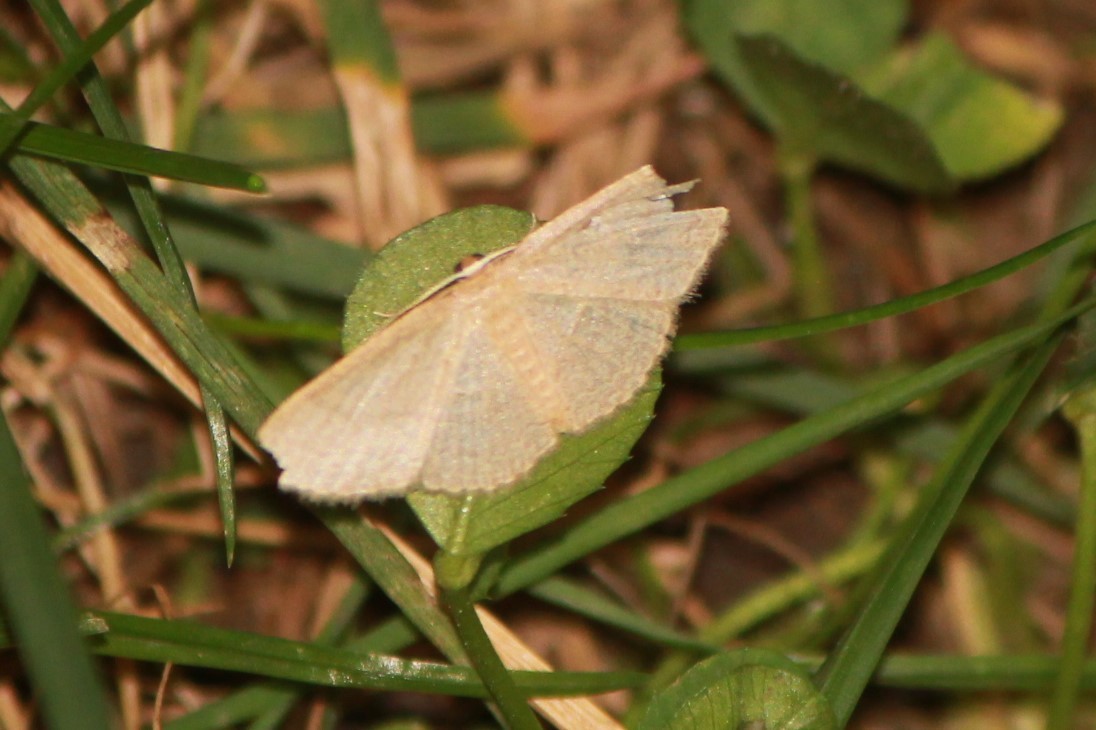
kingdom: Animalia
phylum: Arthropoda
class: Insecta
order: Lepidoptera
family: Geometridae
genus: Pleuroprucha
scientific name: Pleuroprucha insulsaria
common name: Common tan wave
